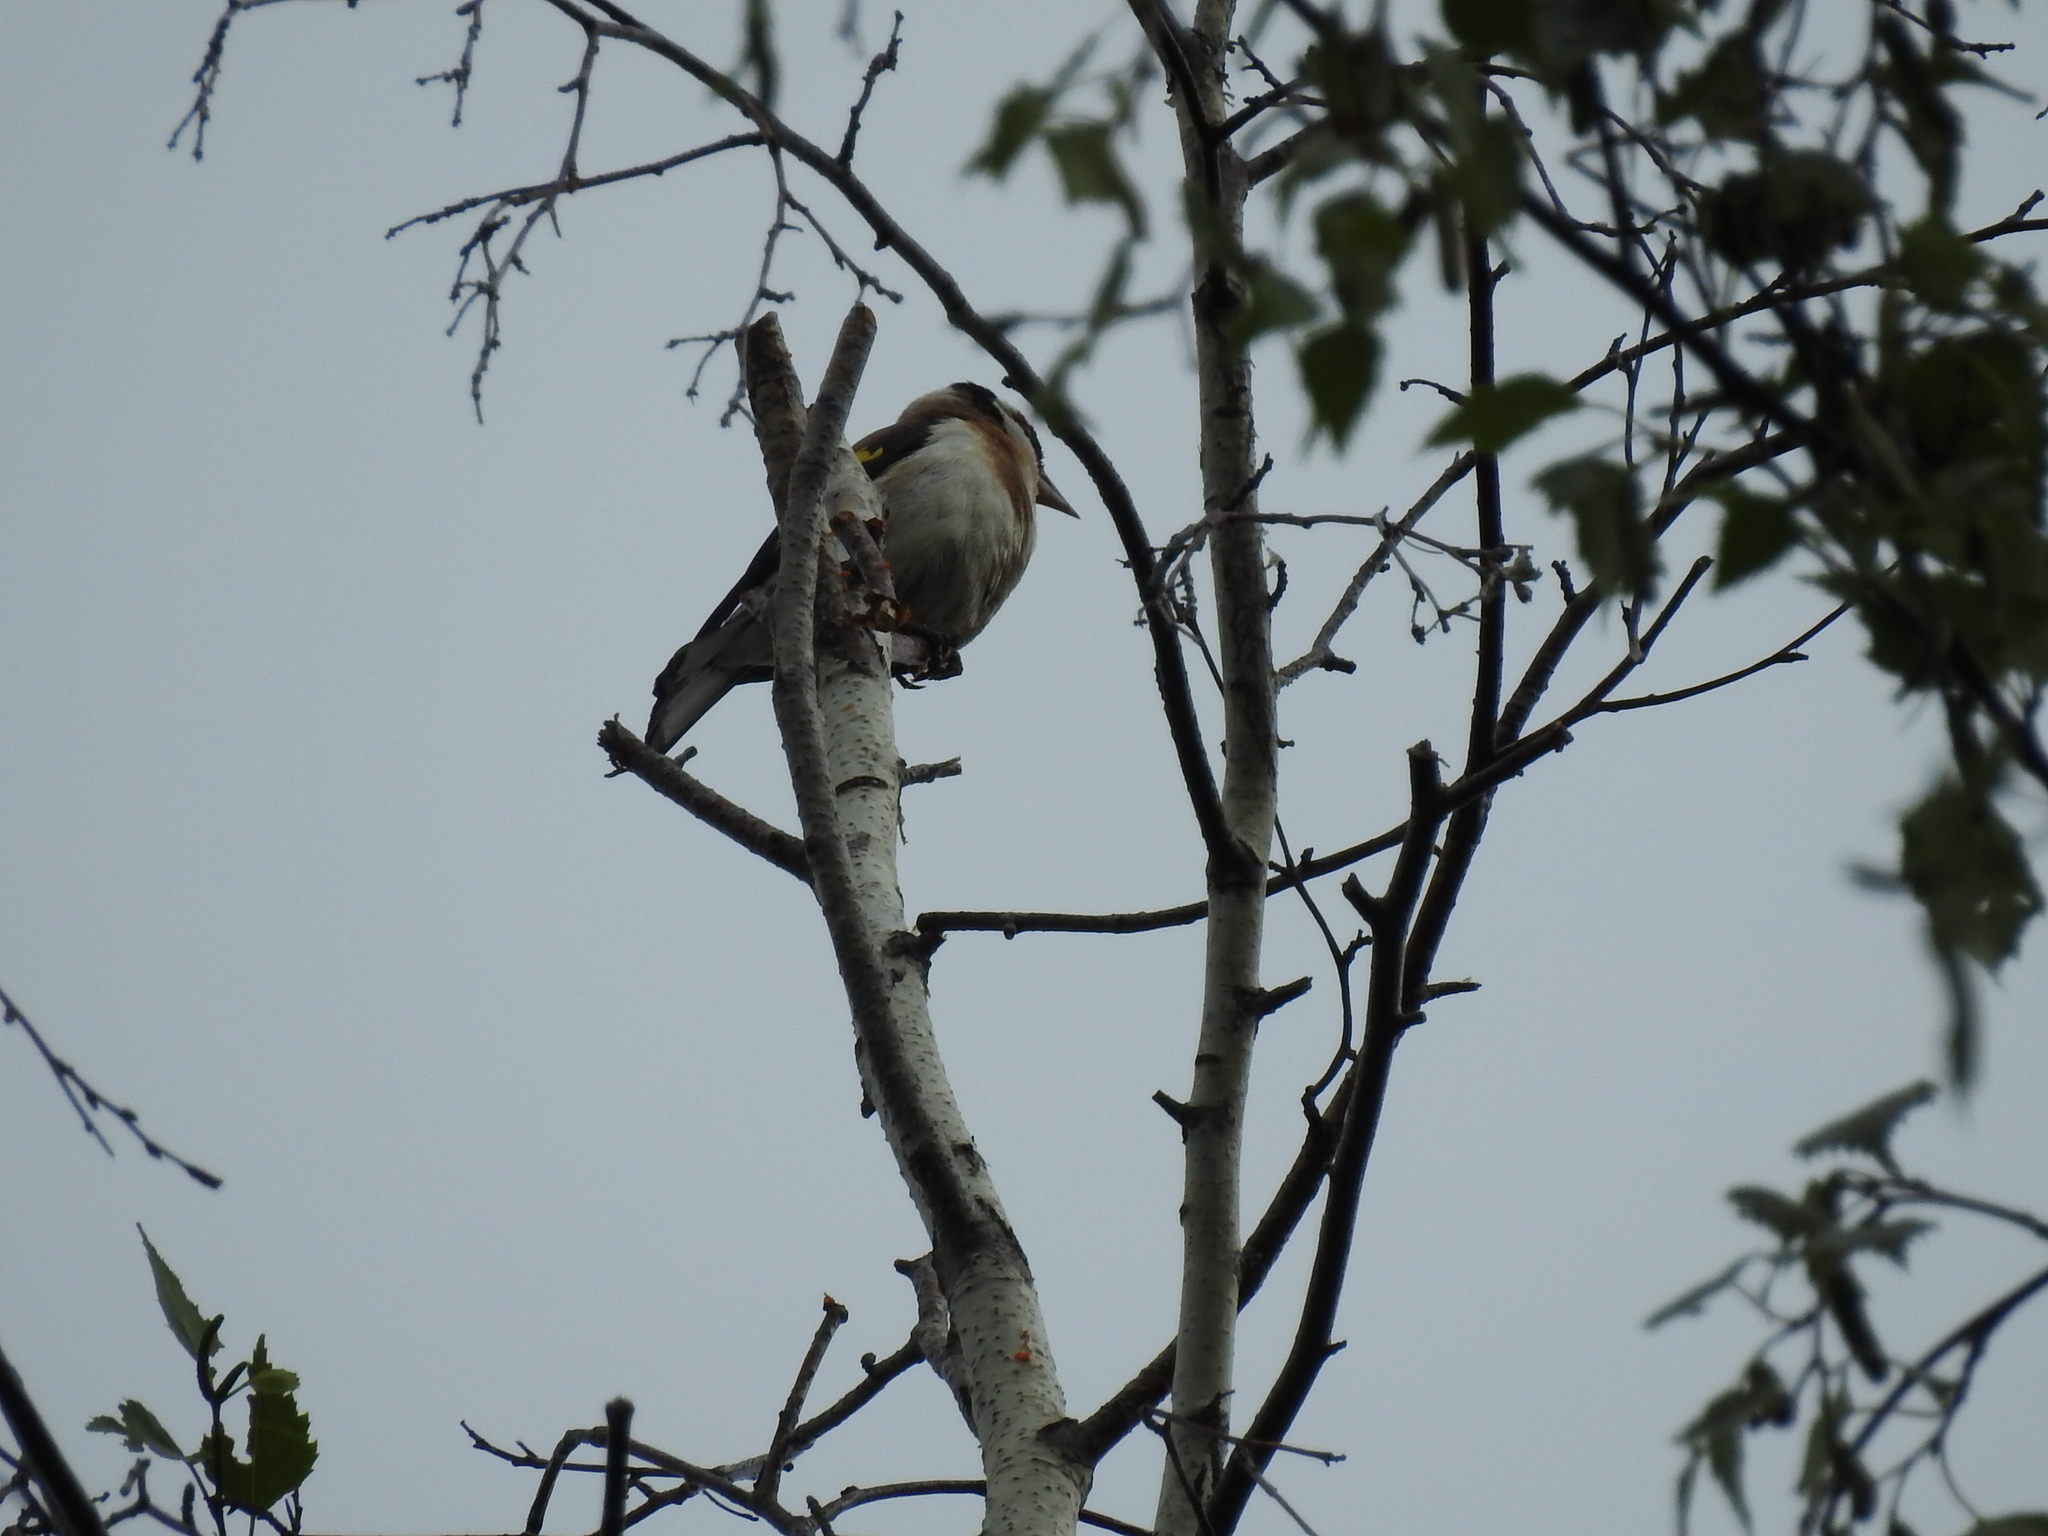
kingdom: Animalia
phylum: Chordata
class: Aves
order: Passeriformes
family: Fringillidae
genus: Carduelis
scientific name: Carduelis carduelis
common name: European goldfinch
